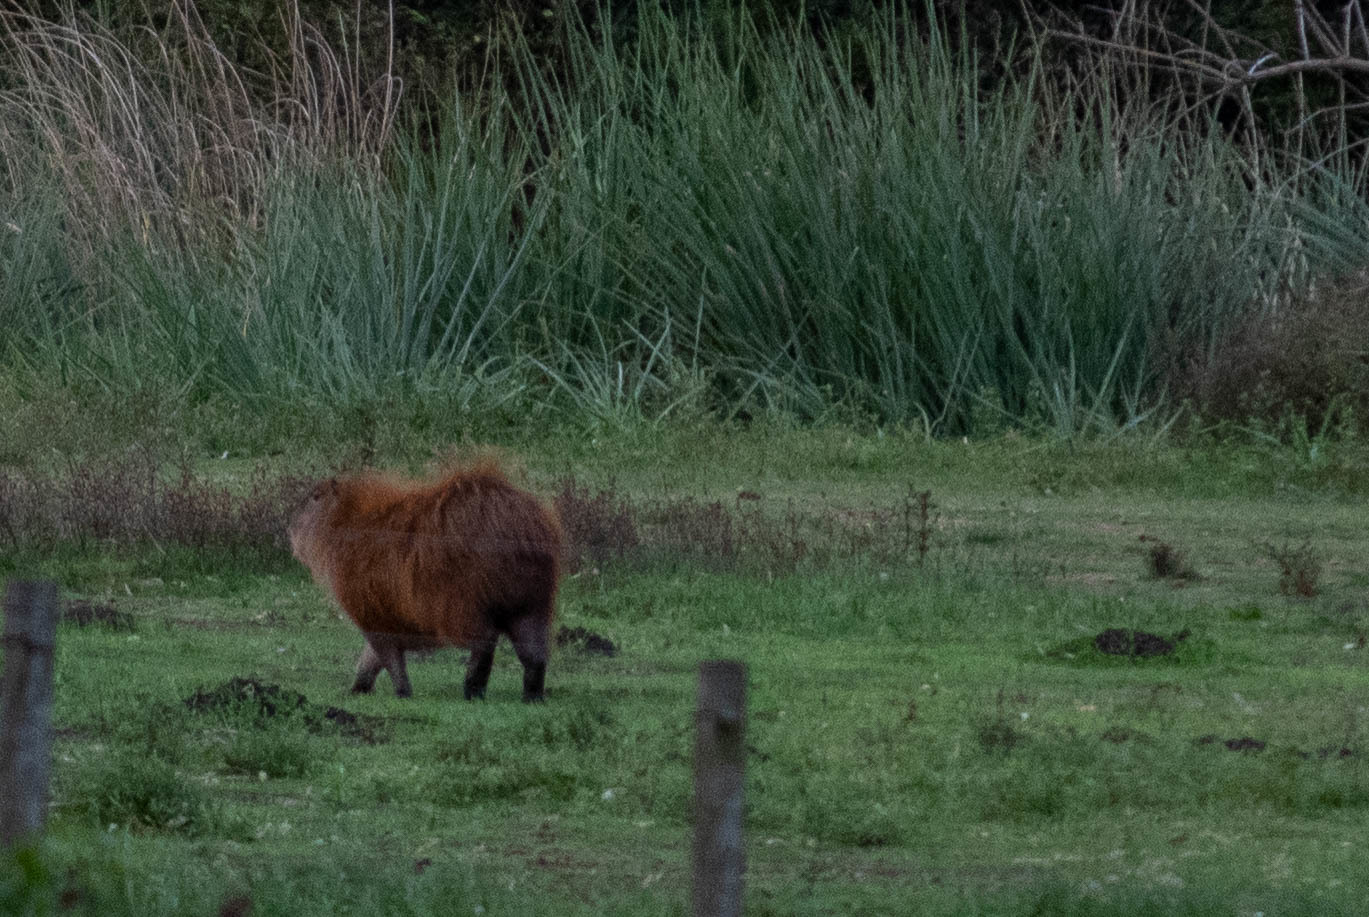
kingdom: Animalia
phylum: Chordata
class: Mammalia
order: Rodentia
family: Caviidae
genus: Hydrochoerus
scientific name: Hydrochoerus hydrochaeris
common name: Capybara
